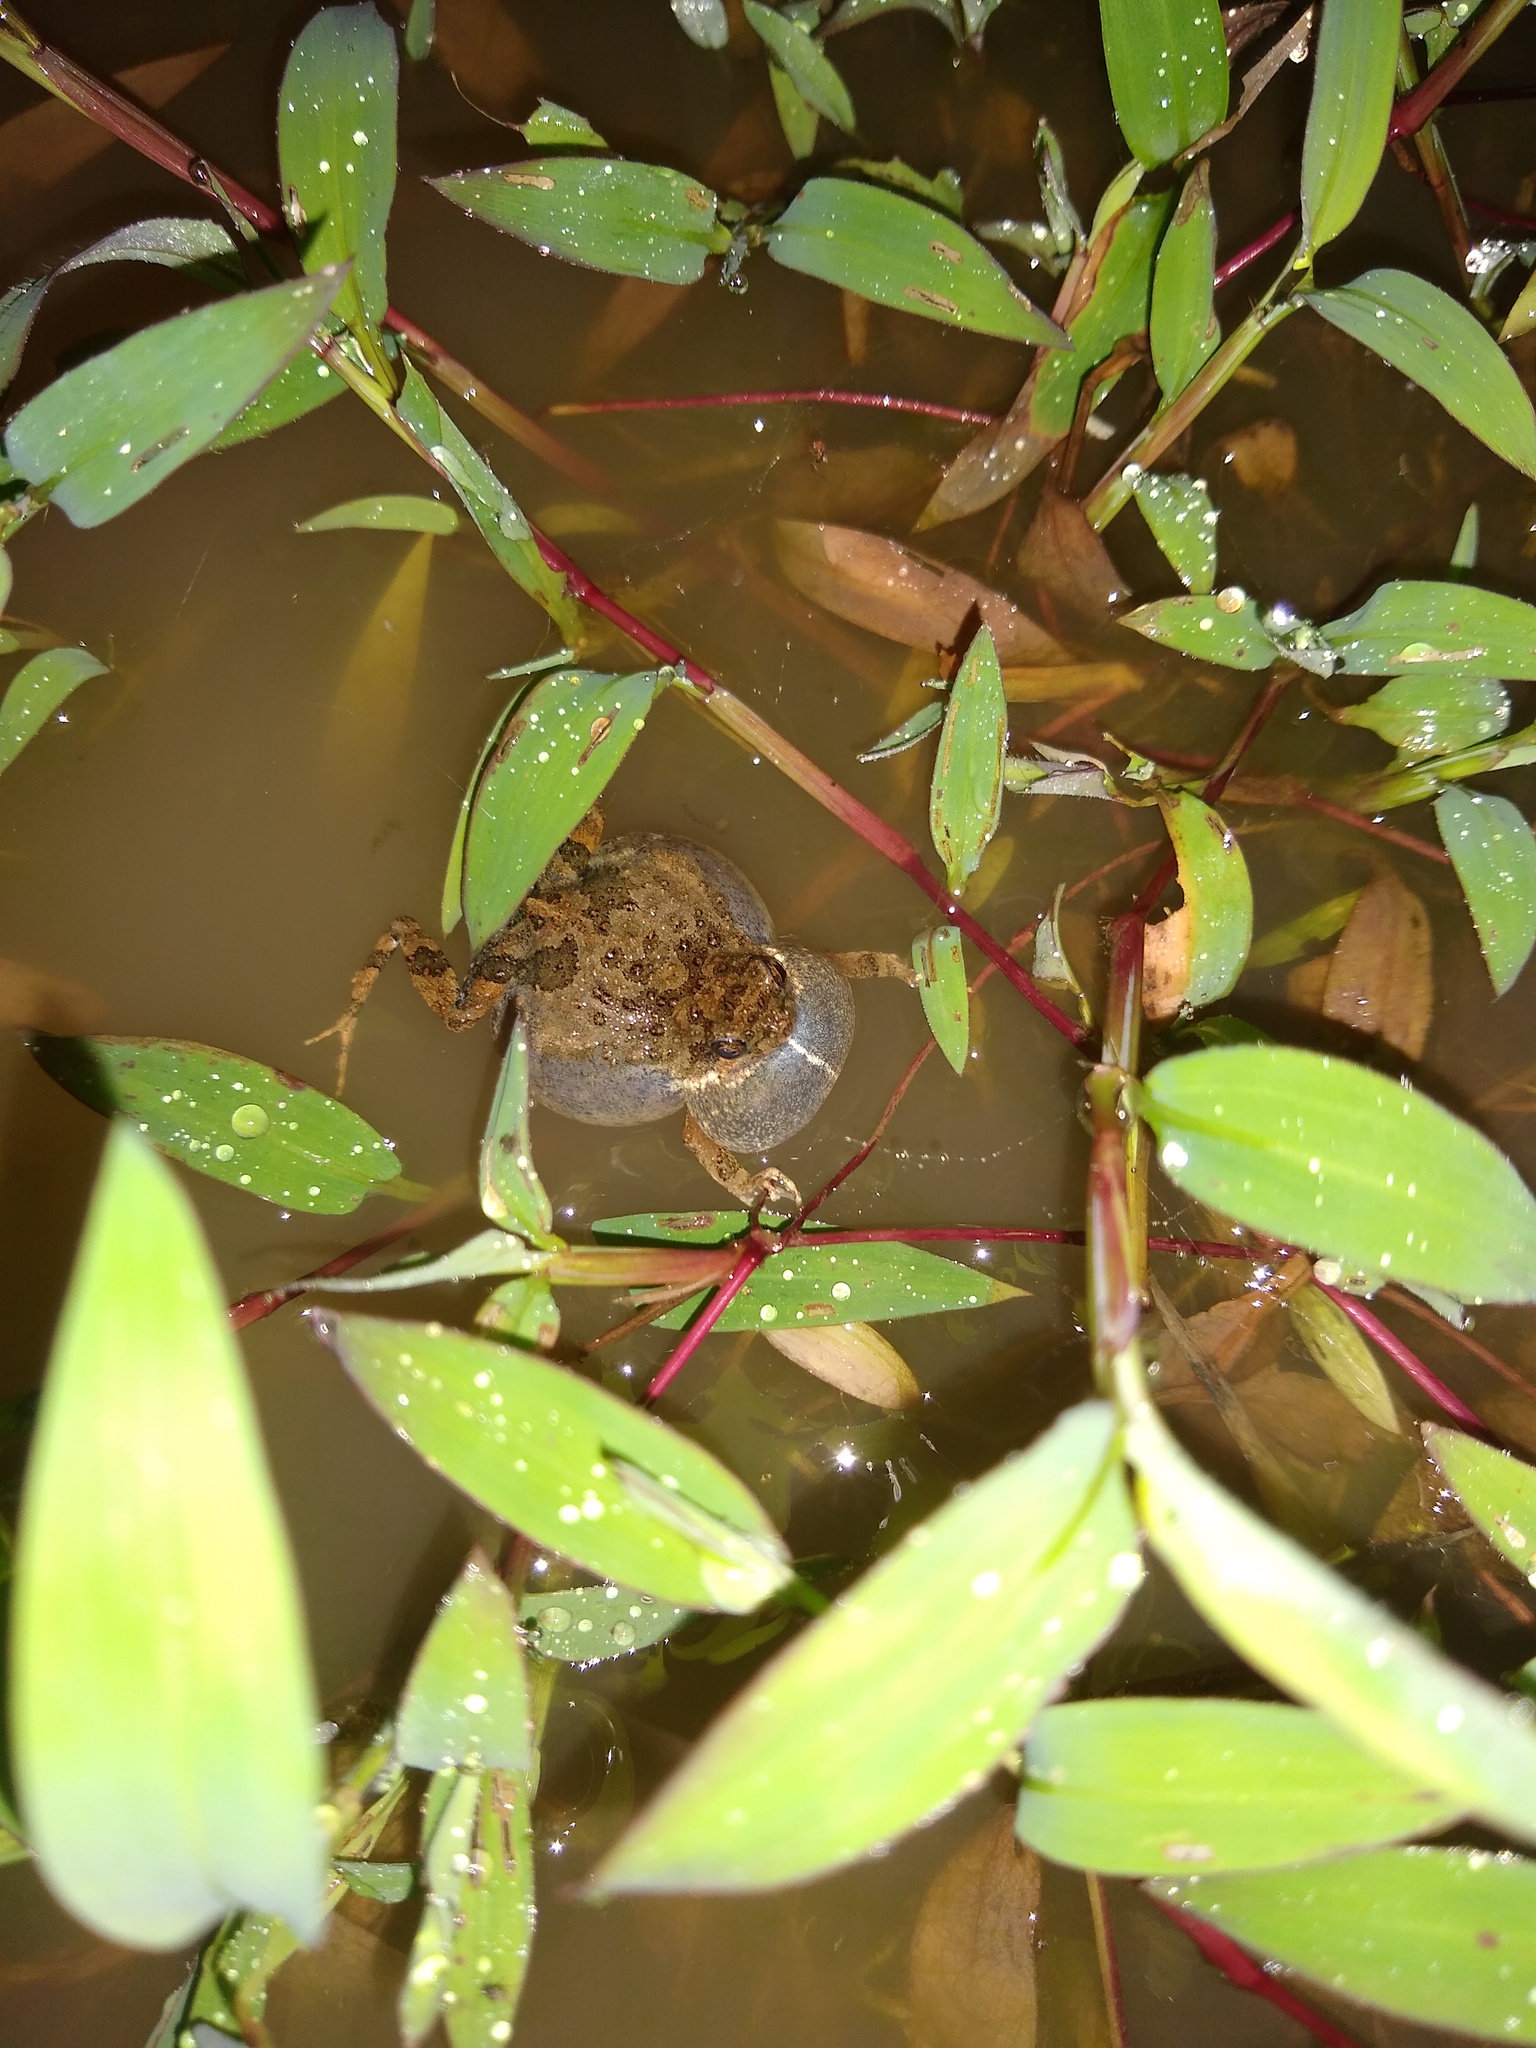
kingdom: Animalia
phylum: Chordata
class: Amphibia
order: Anura
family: Leptodactylidae
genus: Engystomops
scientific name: Engystomops pustulosus
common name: Tungara frog
